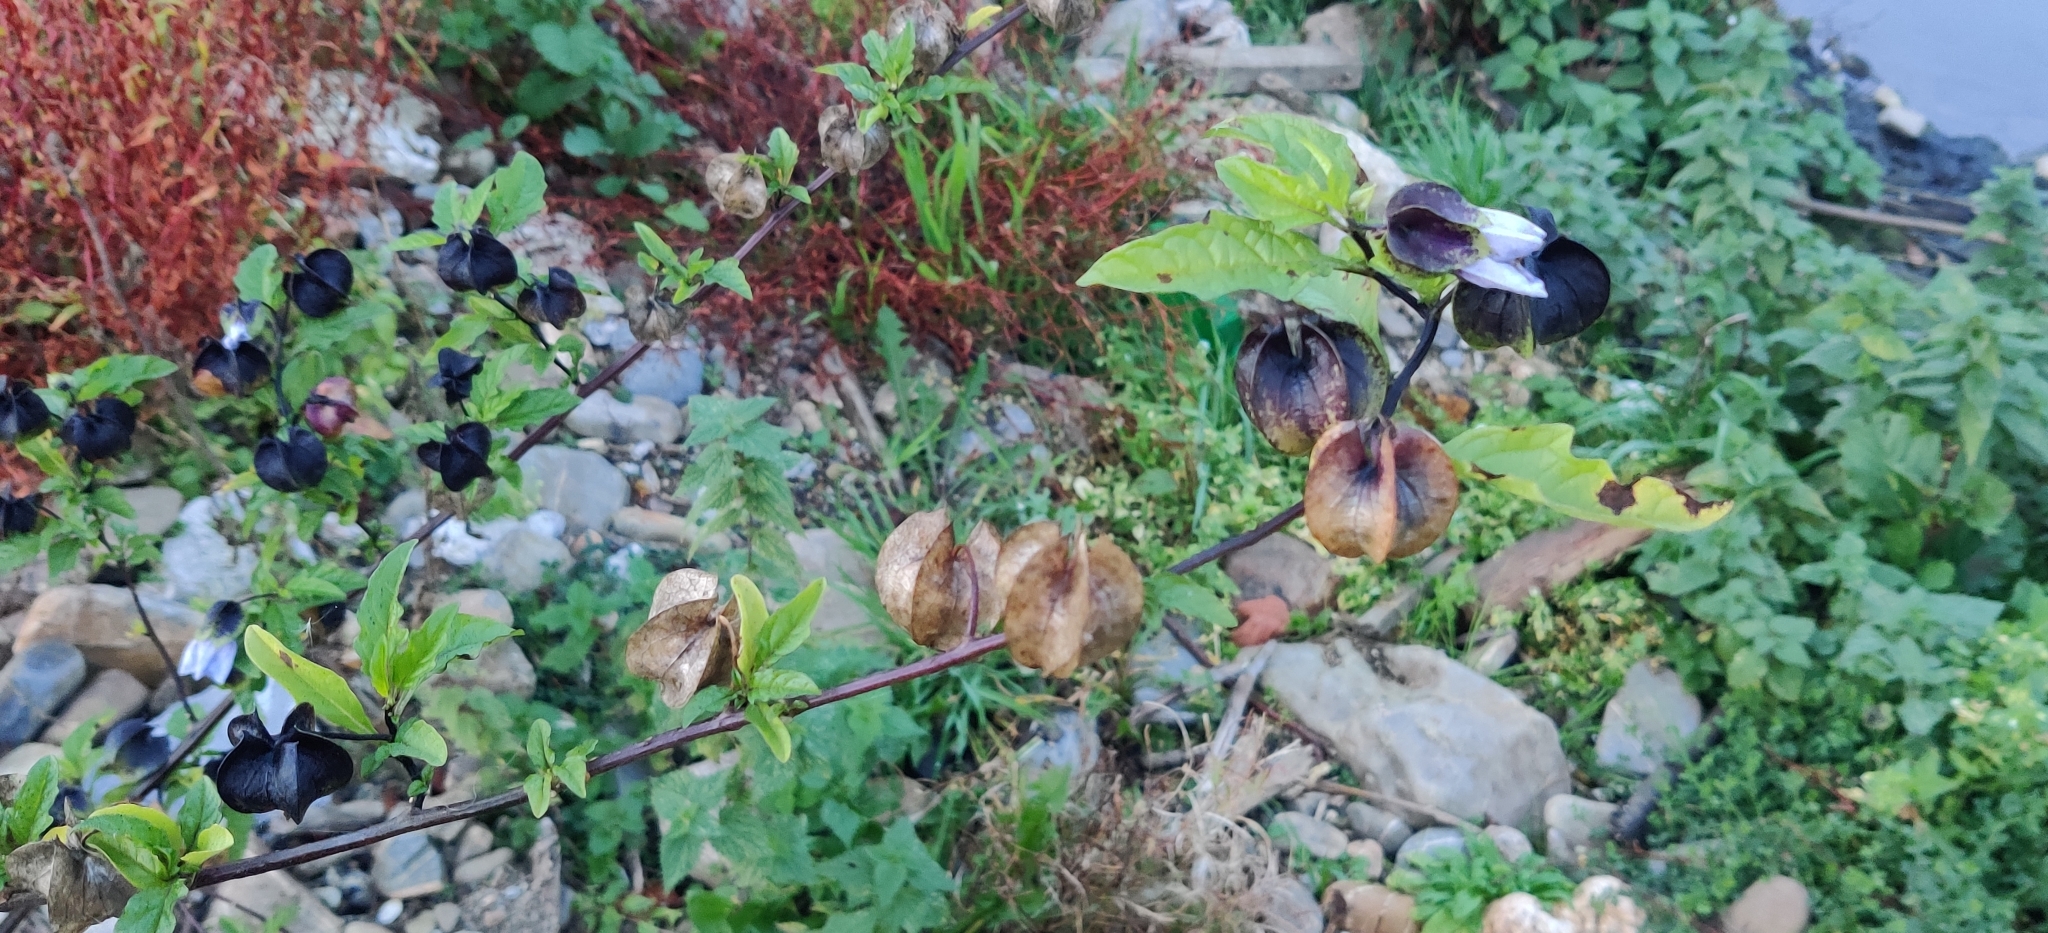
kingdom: Plantae
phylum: Tracheophyta
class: Magnoliopsida
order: Solanales
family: Solanaceae
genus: Nicandra
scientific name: Nicandra physalodes
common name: Apple-of-peru
